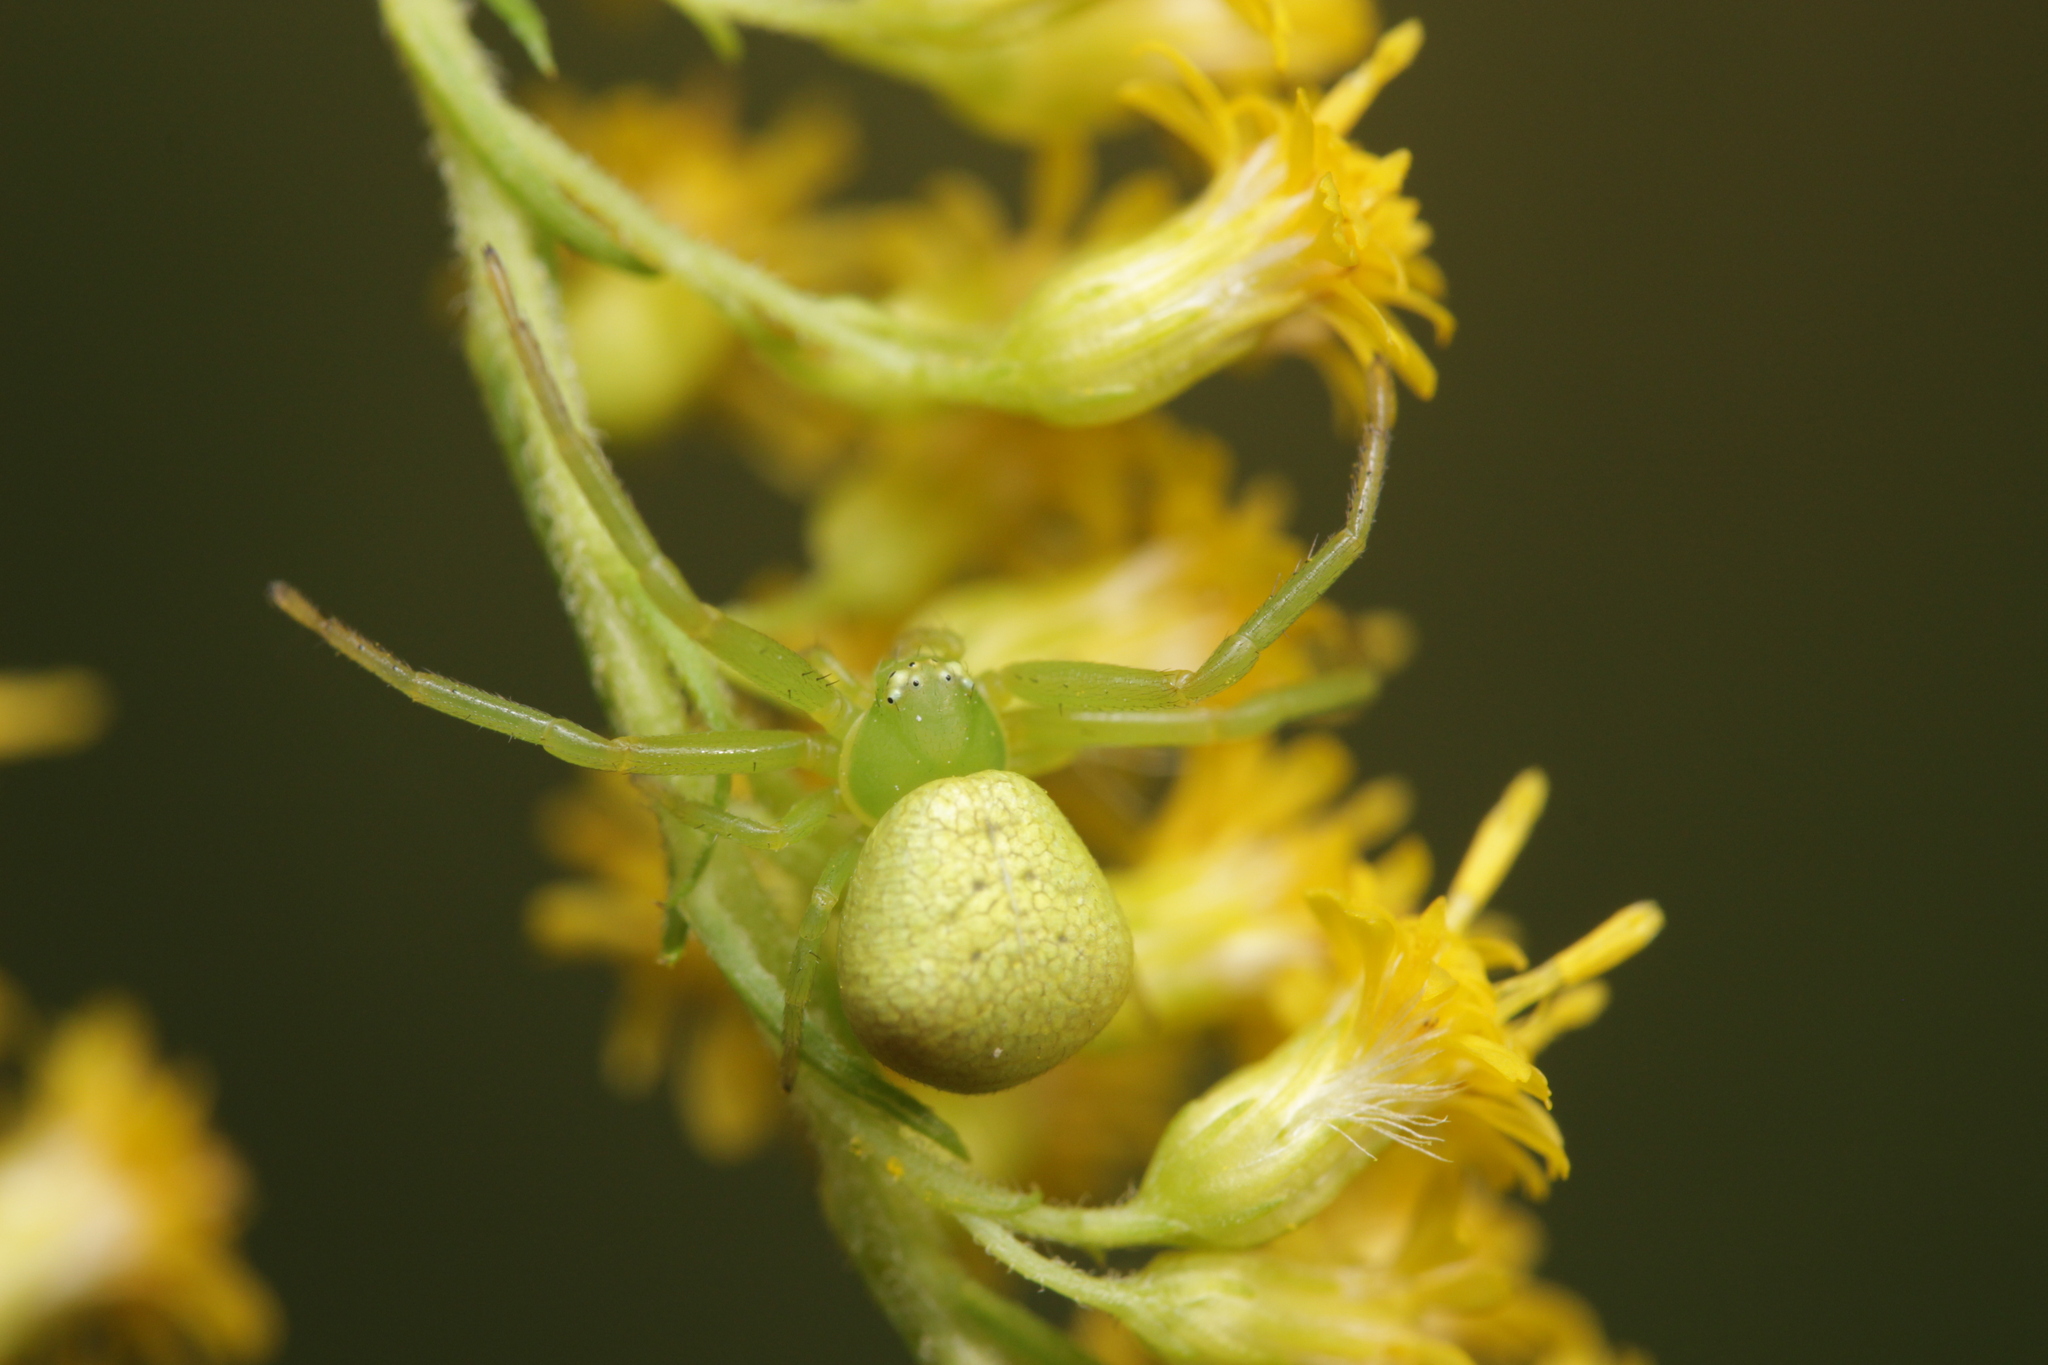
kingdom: Animalia
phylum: Arthropoda
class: Arachnida
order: Araneae
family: Thomisidae
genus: Ebrechtella
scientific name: Ebrechtella tricuspidata
